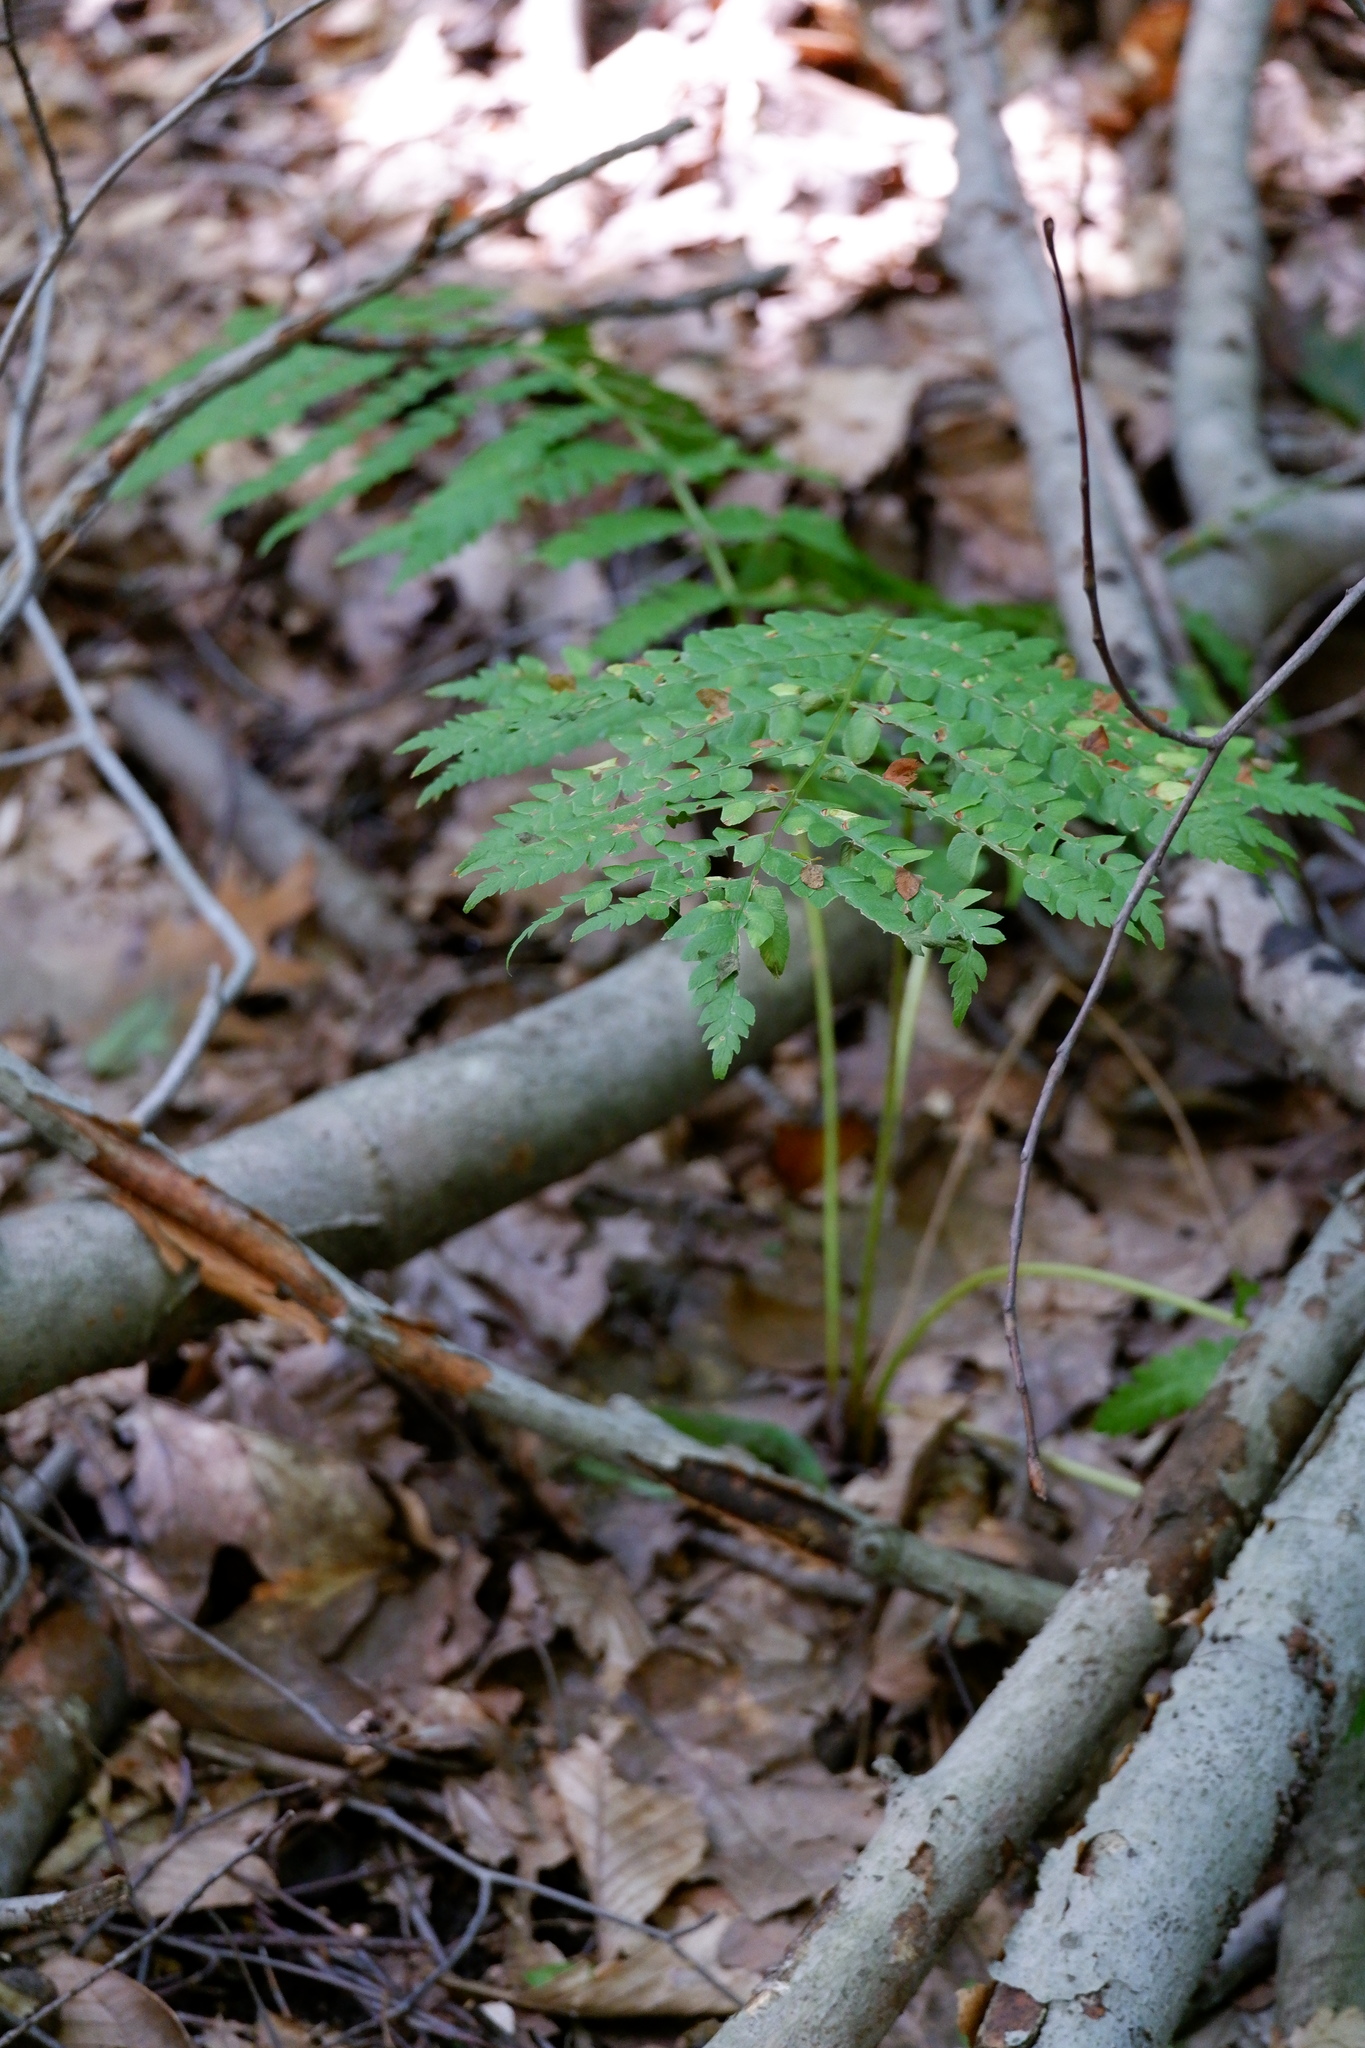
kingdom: Plantae
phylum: Tracheophyta
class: Polypodiopsida
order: Osmundales
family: Osmundaceae
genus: Claytosmunda
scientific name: Claytosmunda claytoniana
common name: Clayton's fern
